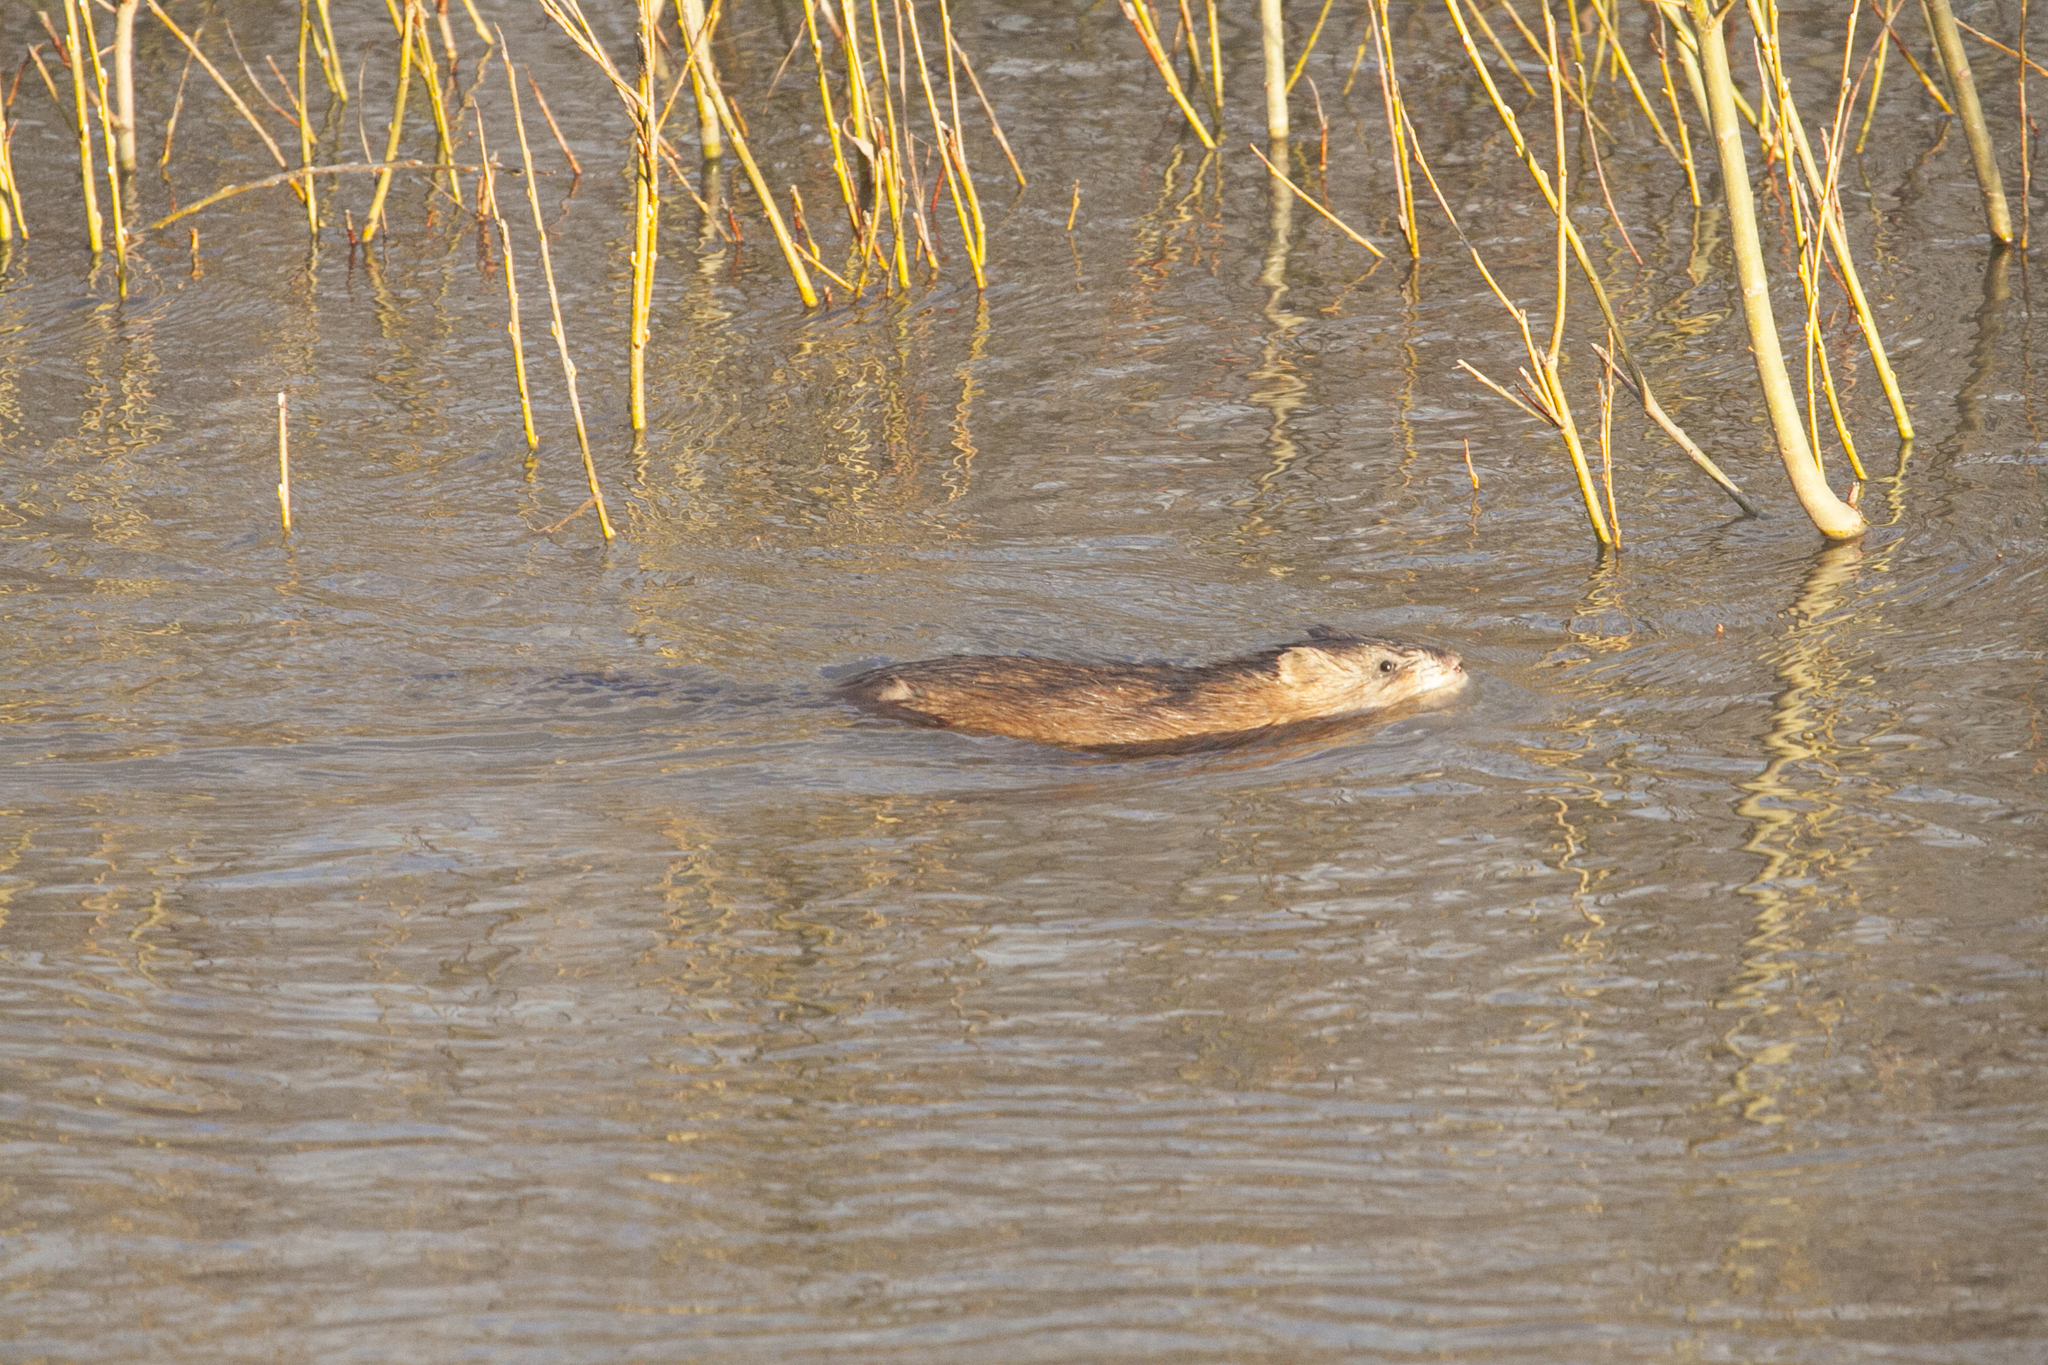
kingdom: Animalia
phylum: Chordata
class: Mammalia
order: Rodentia
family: Cricetidae
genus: Ondatra
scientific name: Ondatra zibethicus
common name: Muskrat
